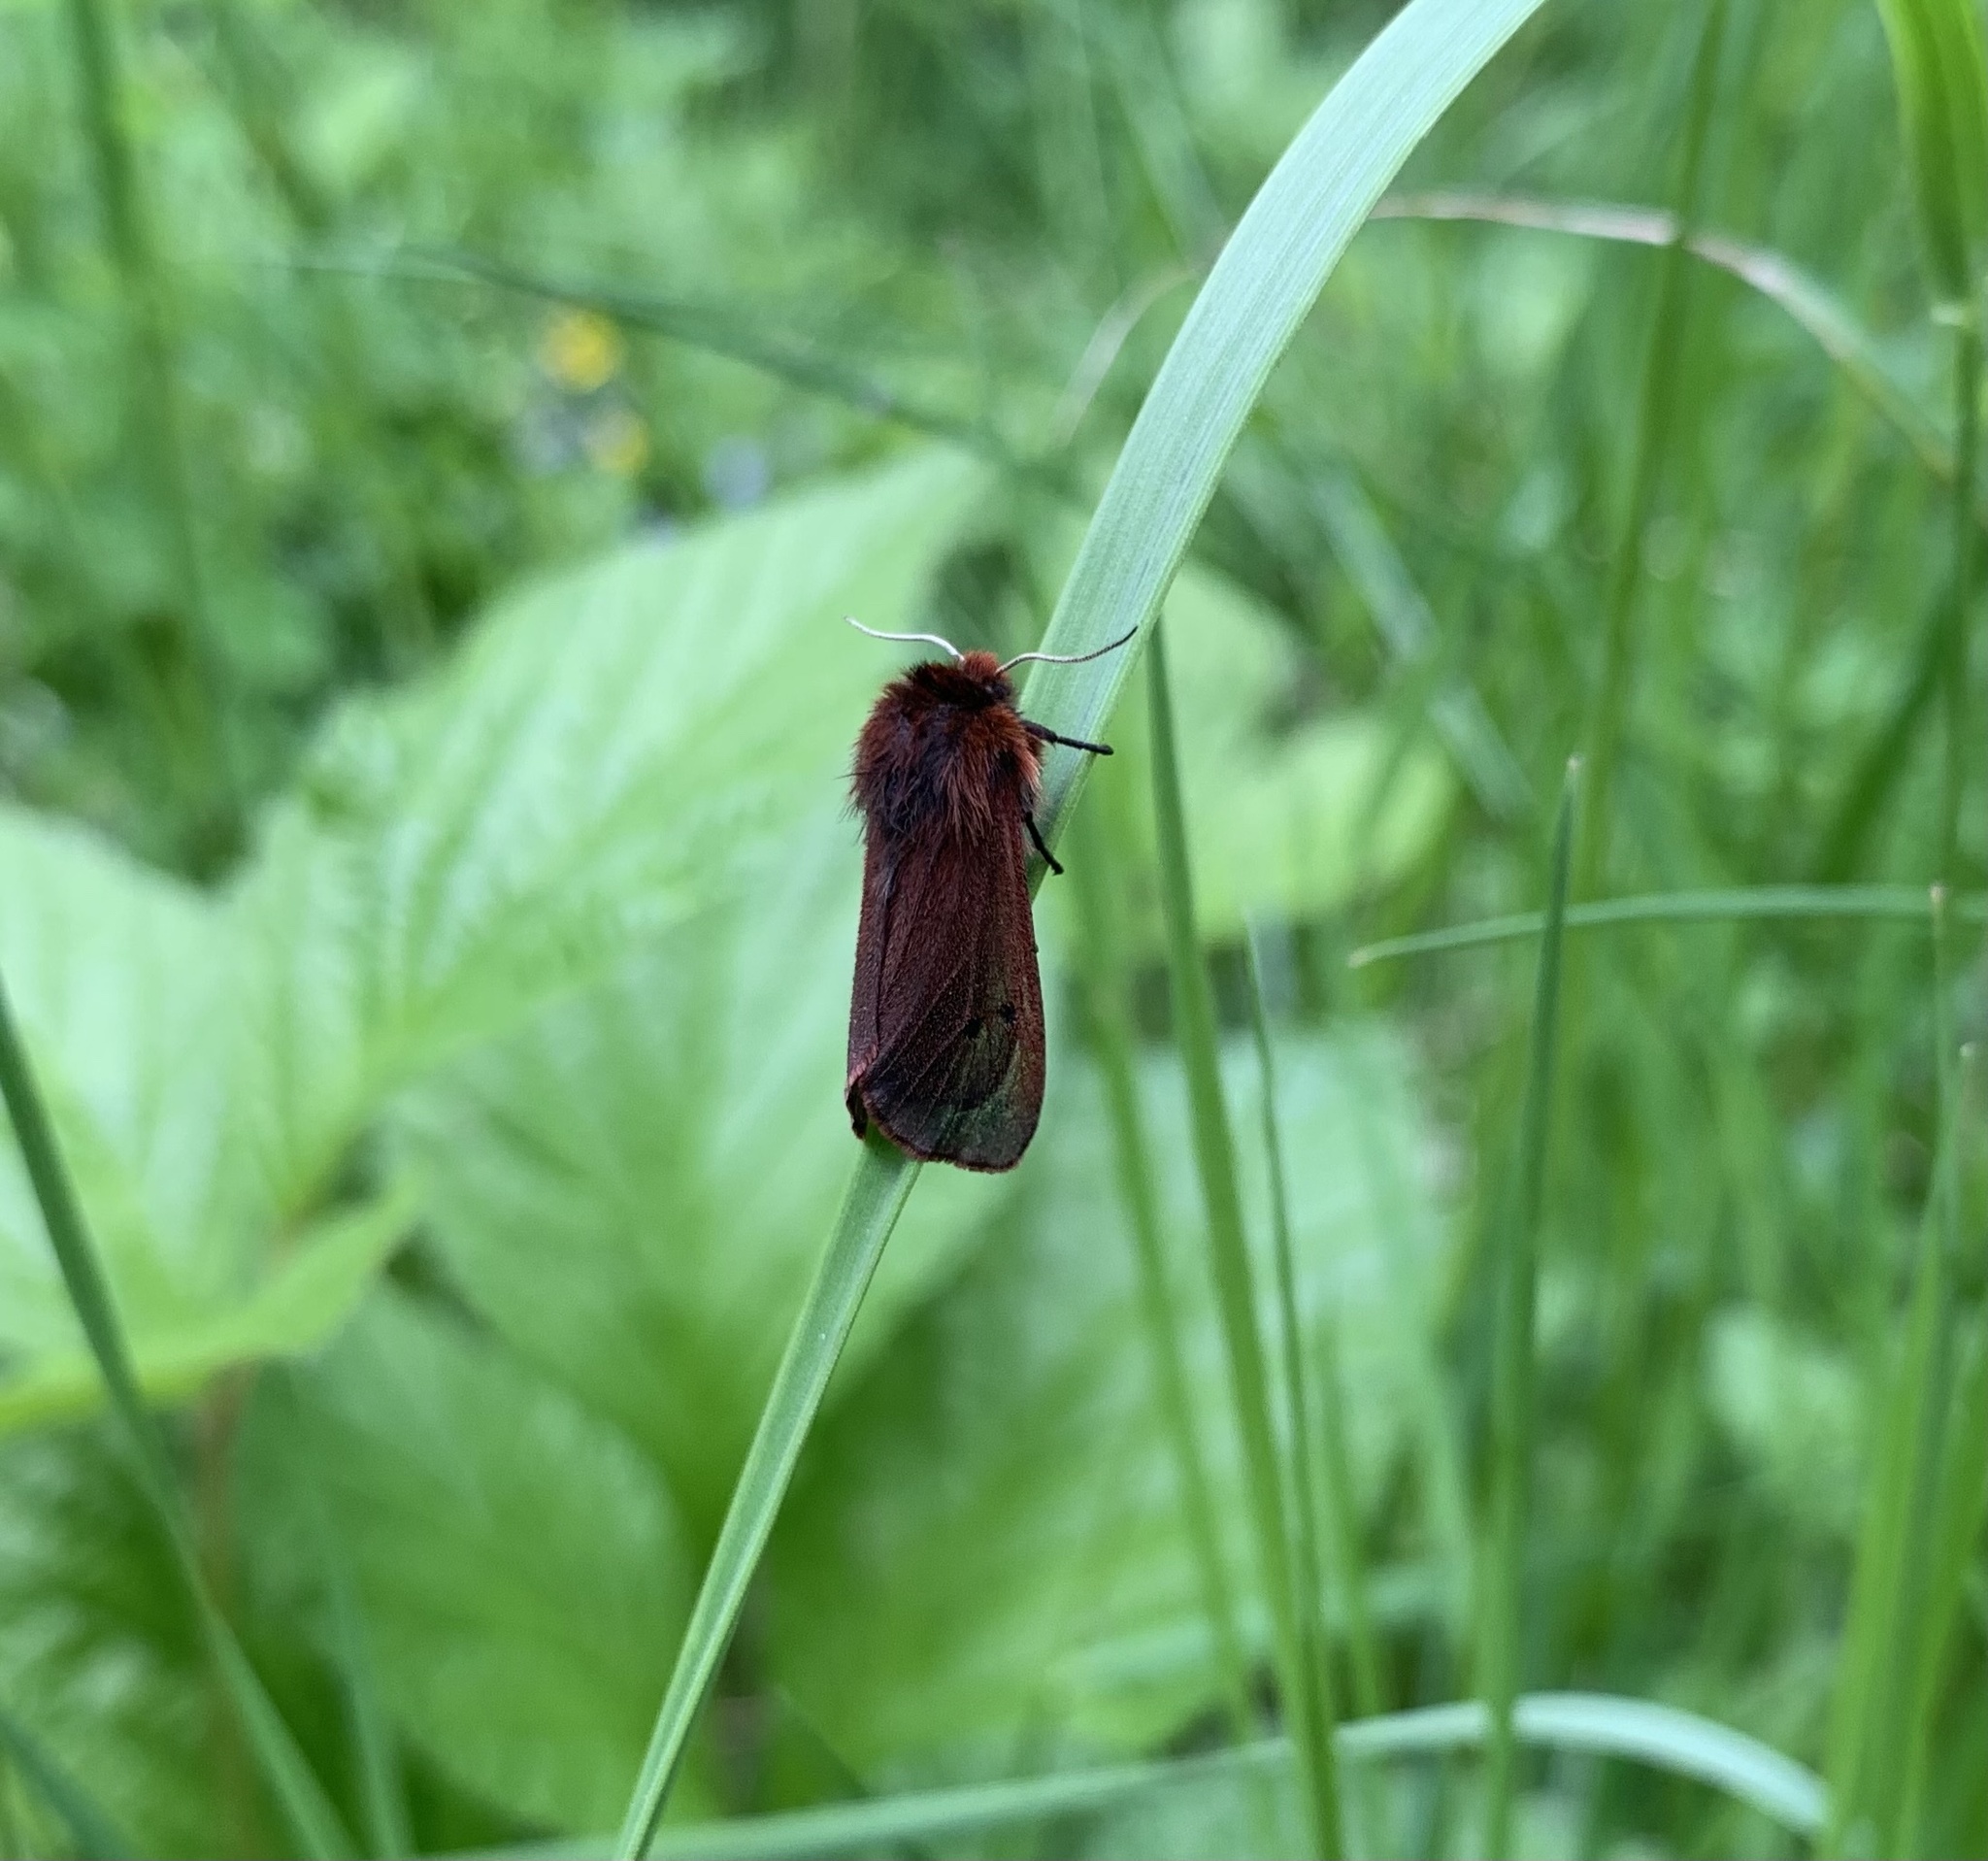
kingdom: Animalia
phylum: Arthropoda
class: Insecta
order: Lepidoptera
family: Erebidae
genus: Phragmatobia
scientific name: Phragmatobia fuliginosa
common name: Ruby tiger
